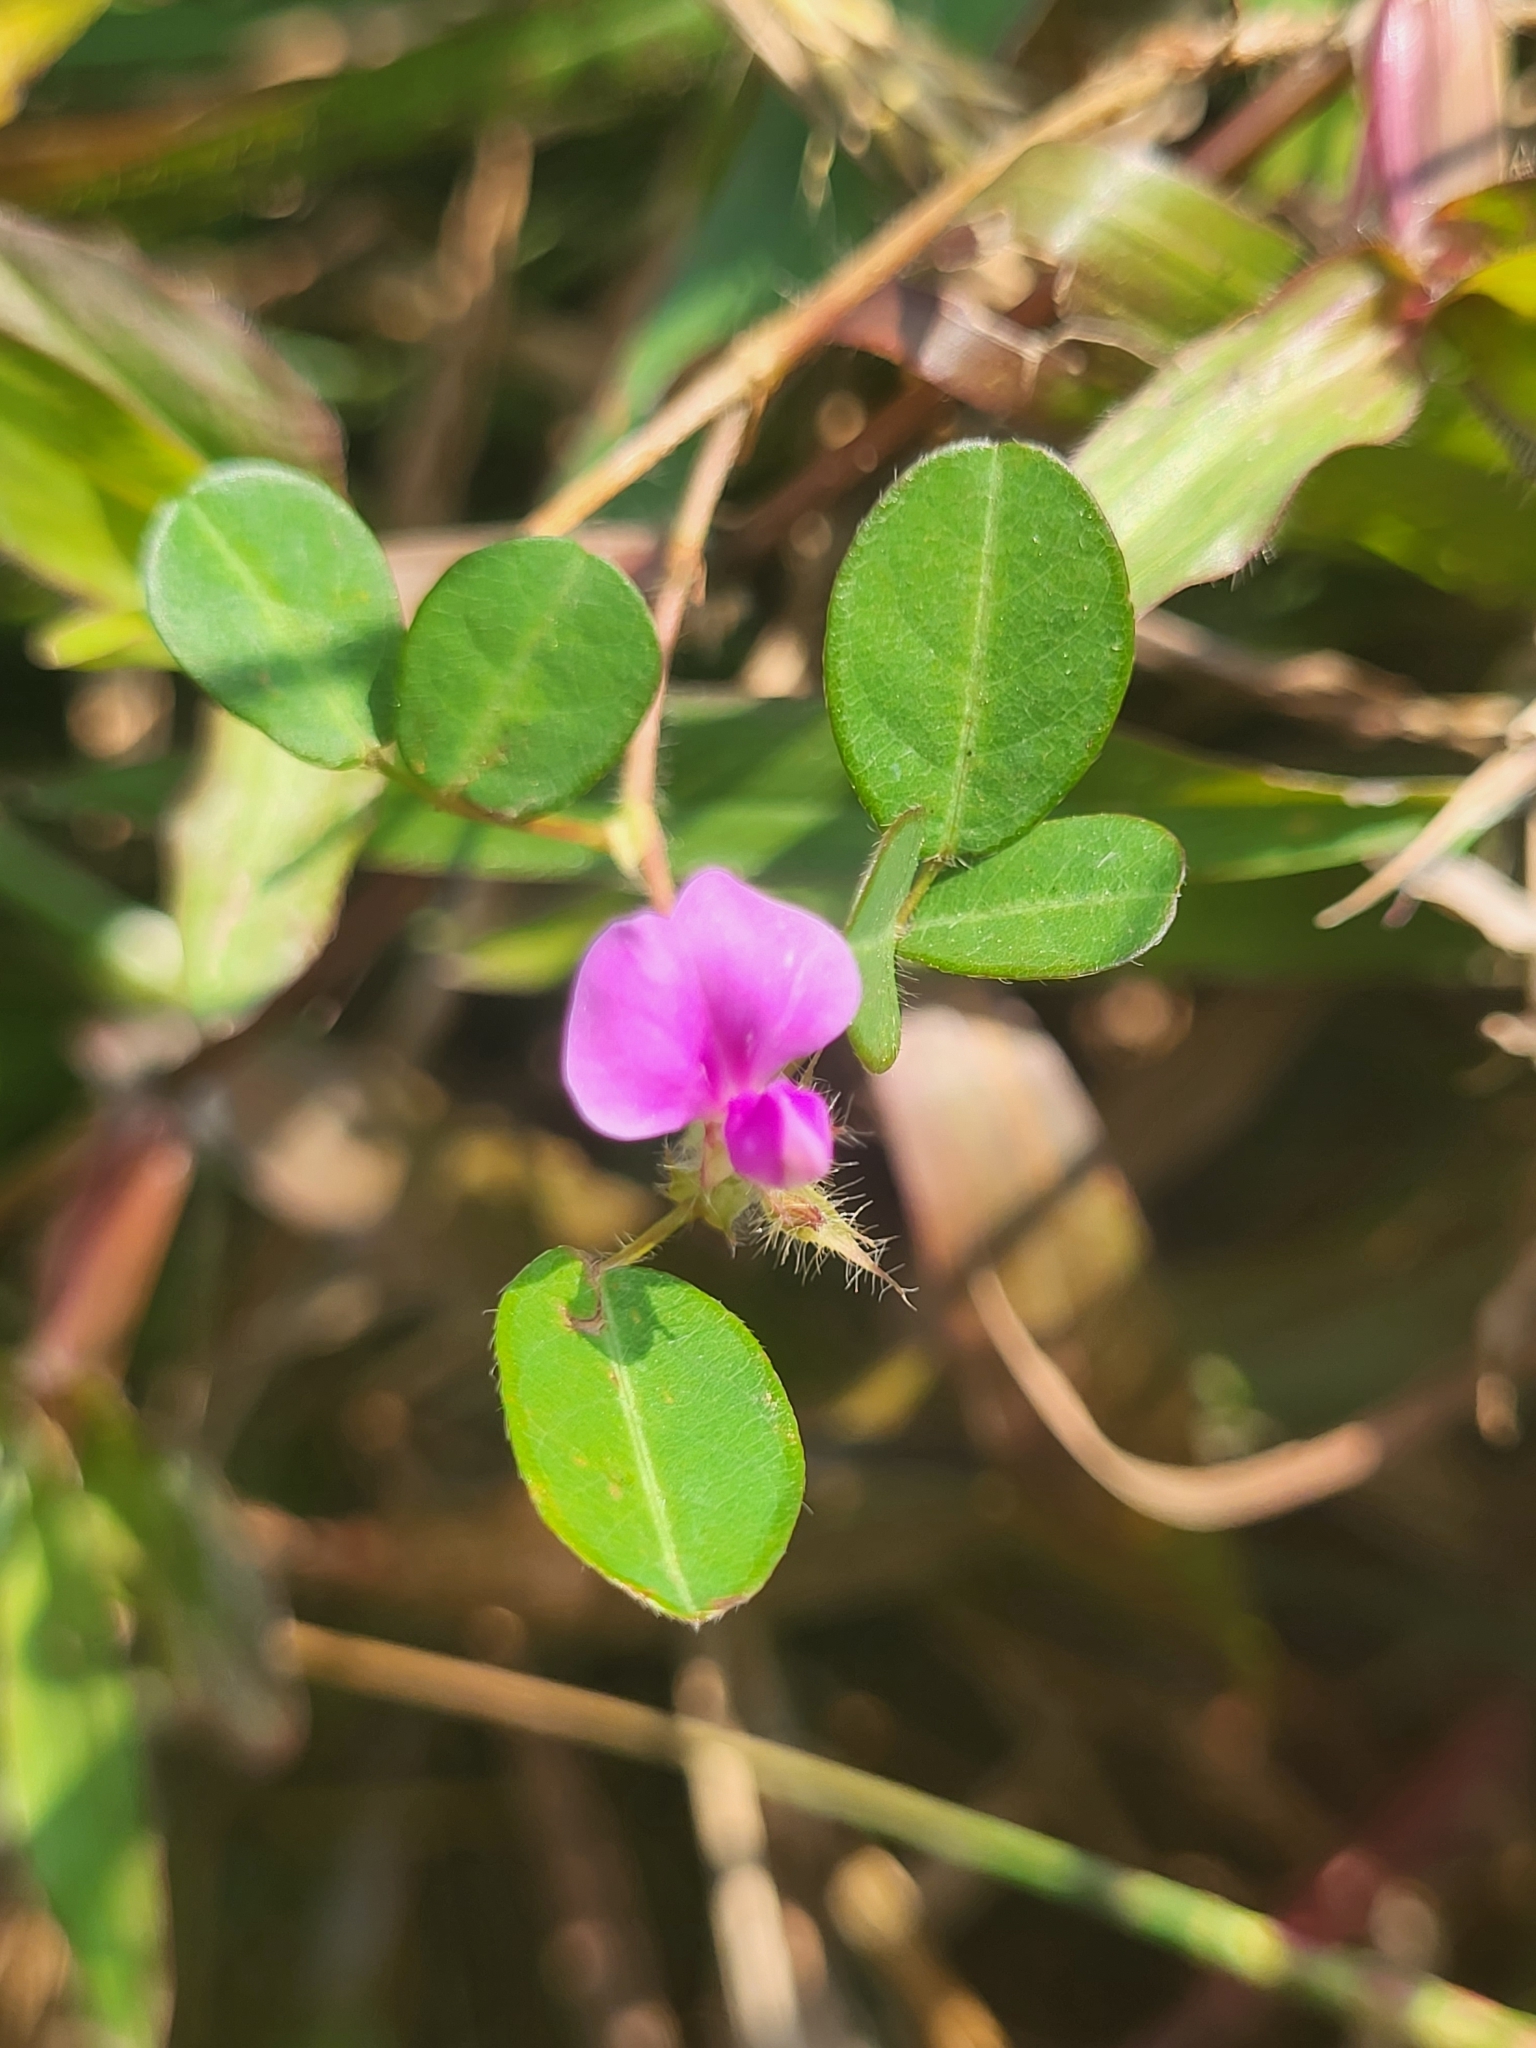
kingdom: Plantae
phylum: Tracheophyta
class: Magnoliopsida
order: Fabales
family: Fabaceae
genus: Grona
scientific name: Grona triflora
